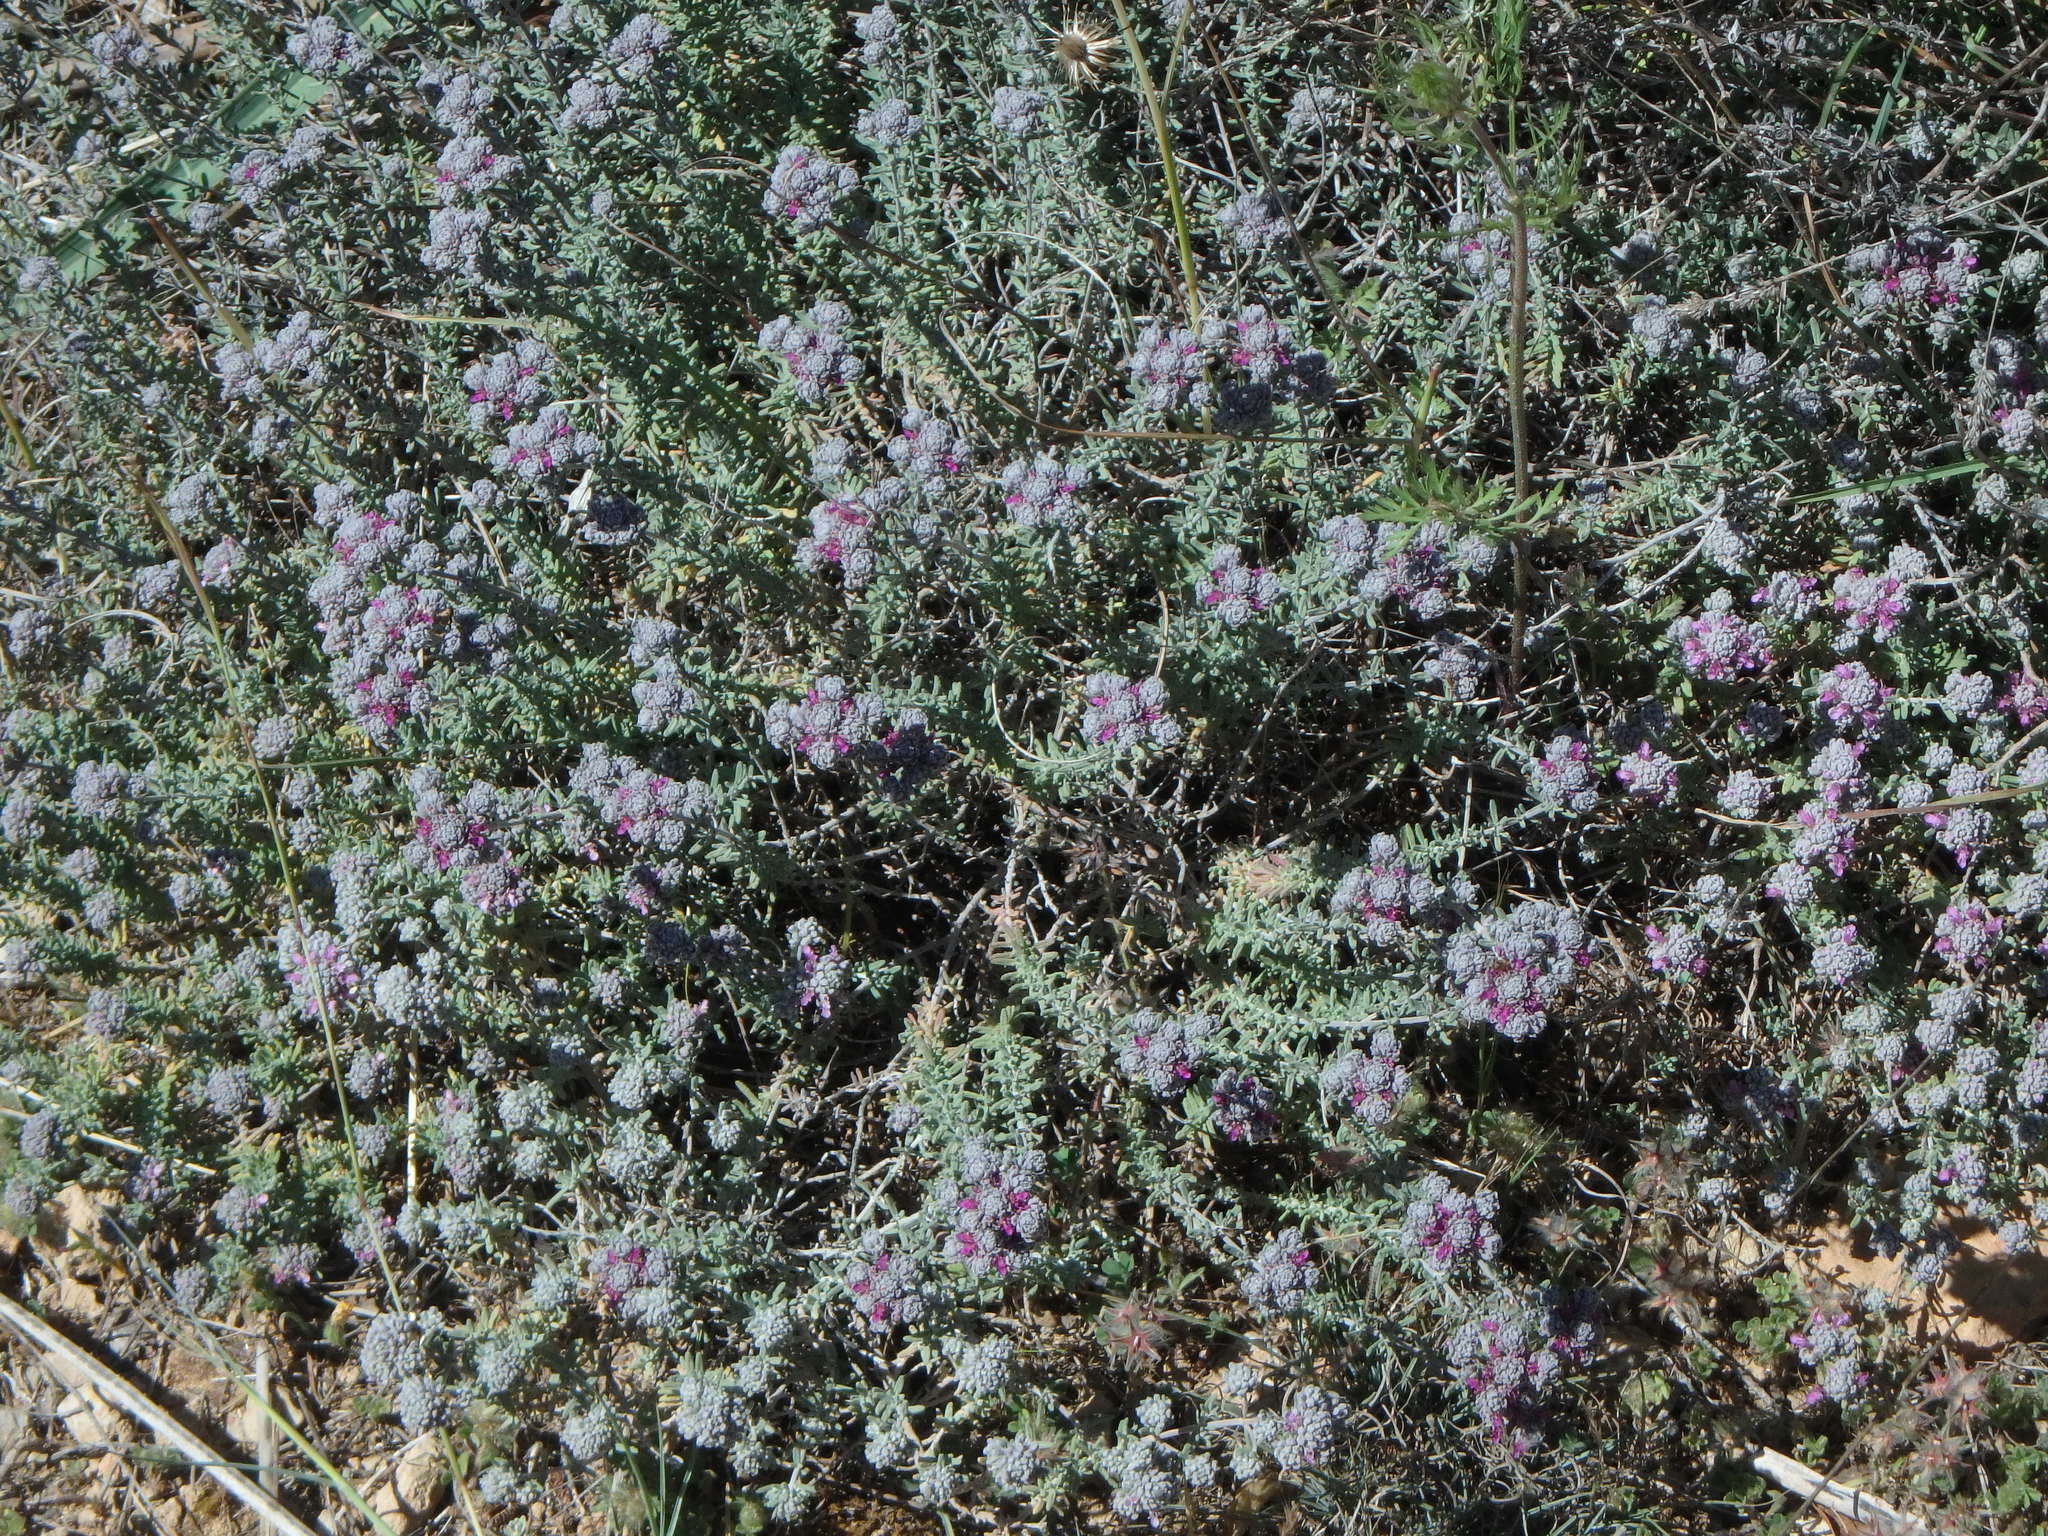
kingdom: Plantae
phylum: Tracheophyta
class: Magnoliopsida
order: Lamiales
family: Lamiaceae
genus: Teucrium
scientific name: Teucrium capitatum
